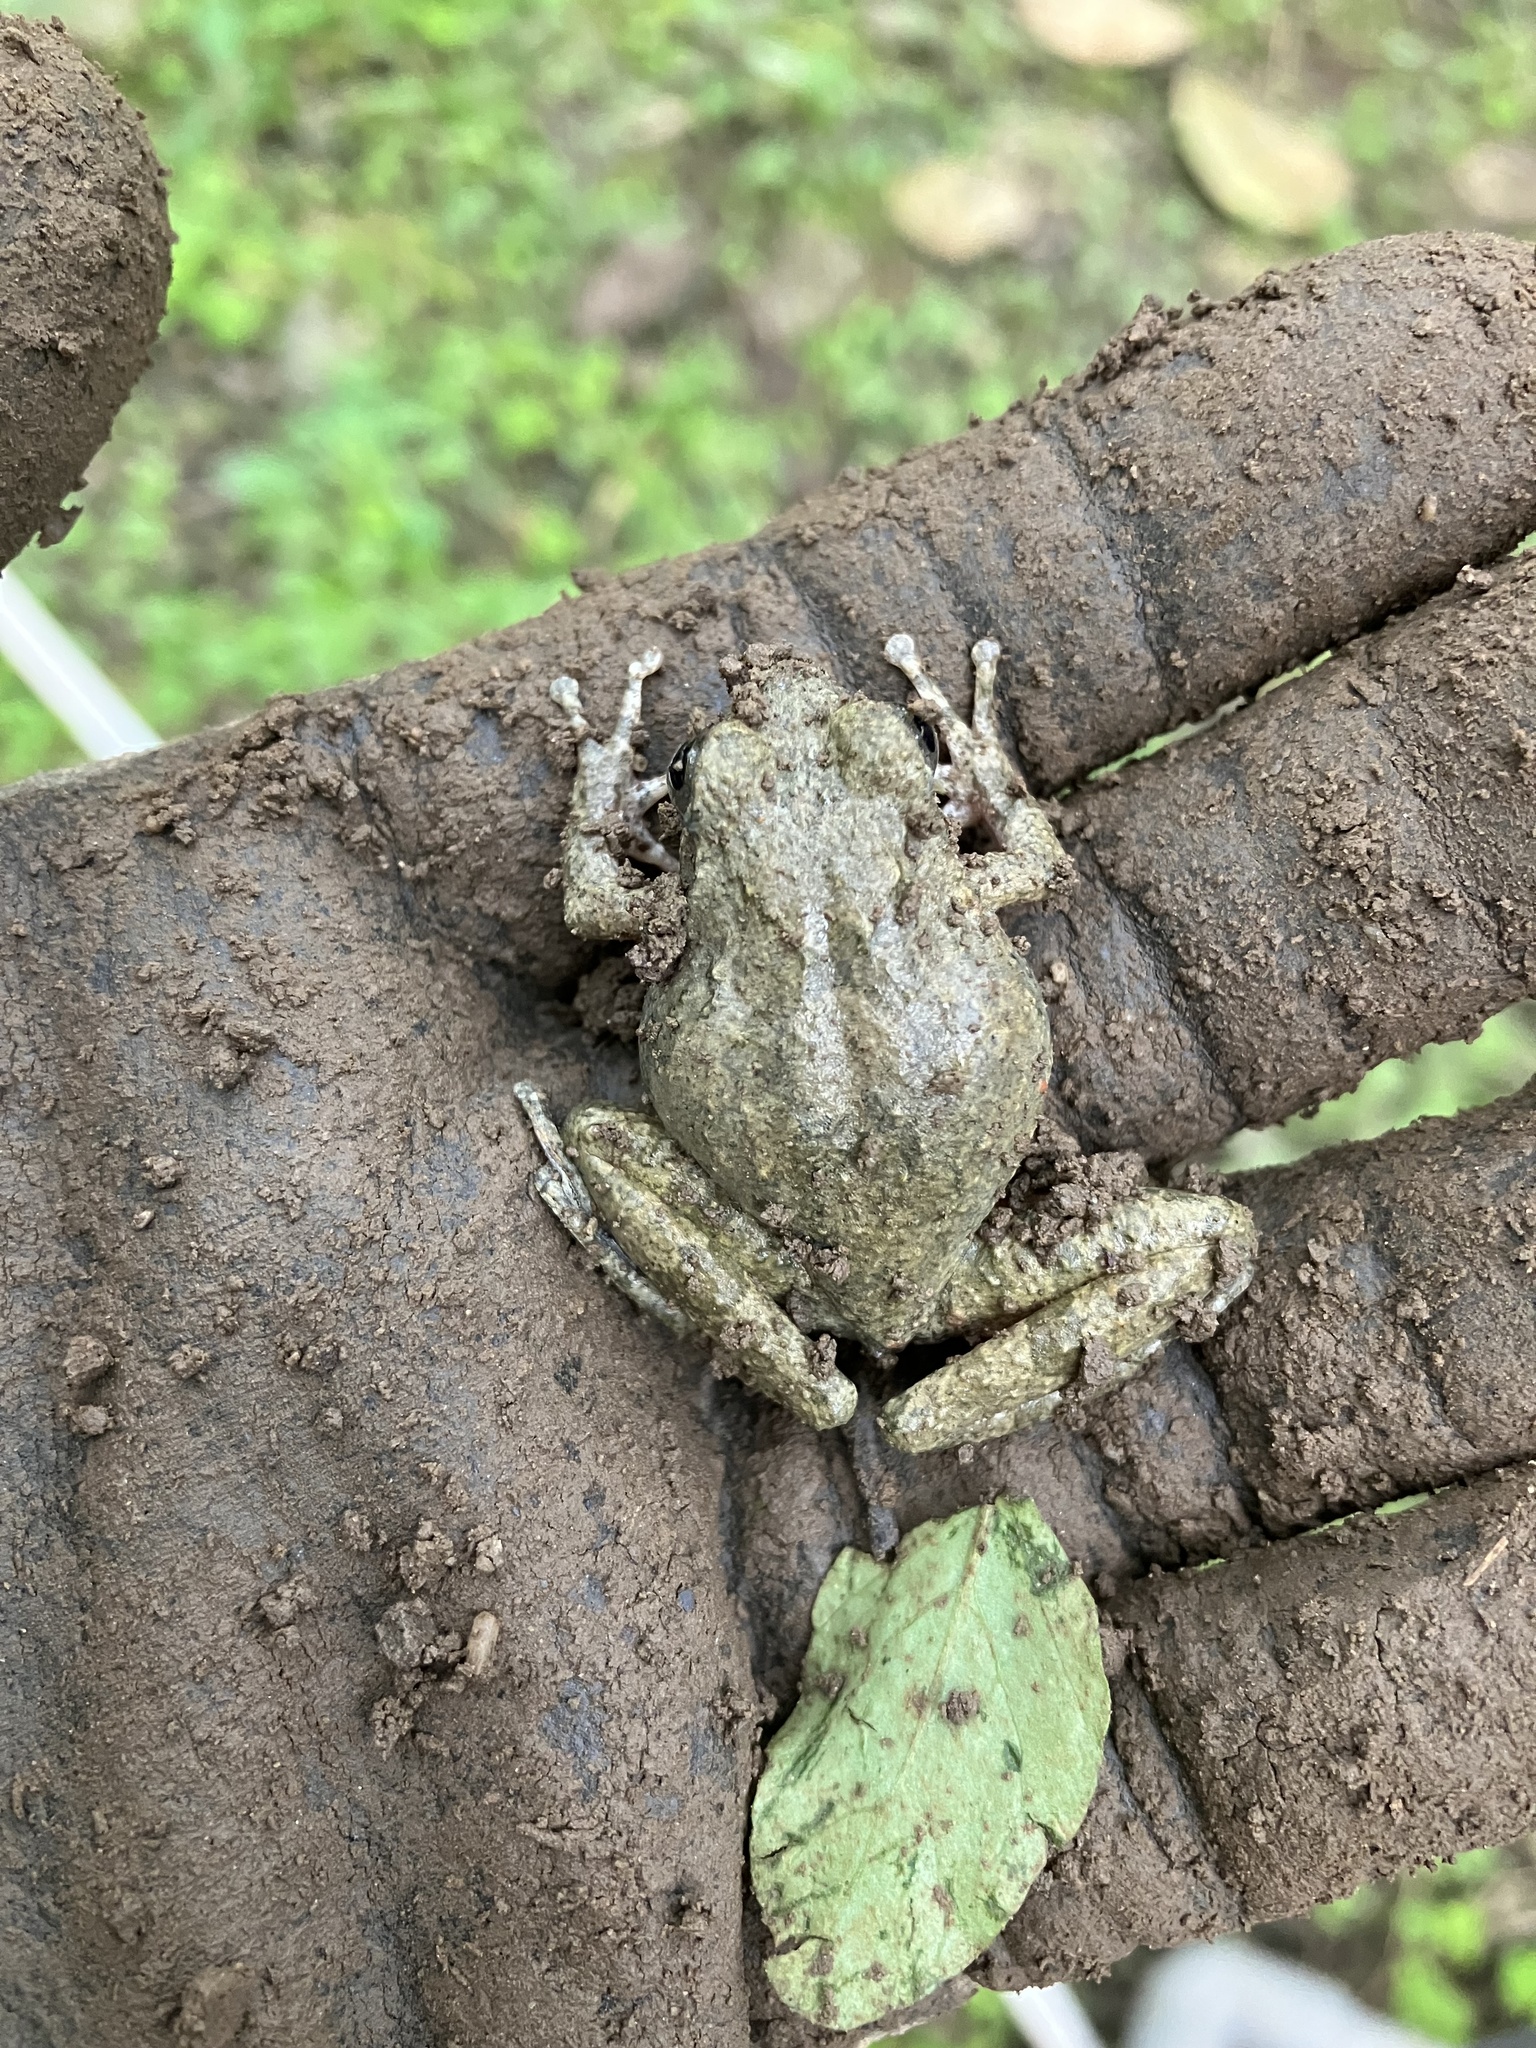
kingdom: Animalia
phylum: Chordata
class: Amphibia
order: Anura
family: Rhacophoridae
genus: Buergeria
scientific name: Buergeria otai
